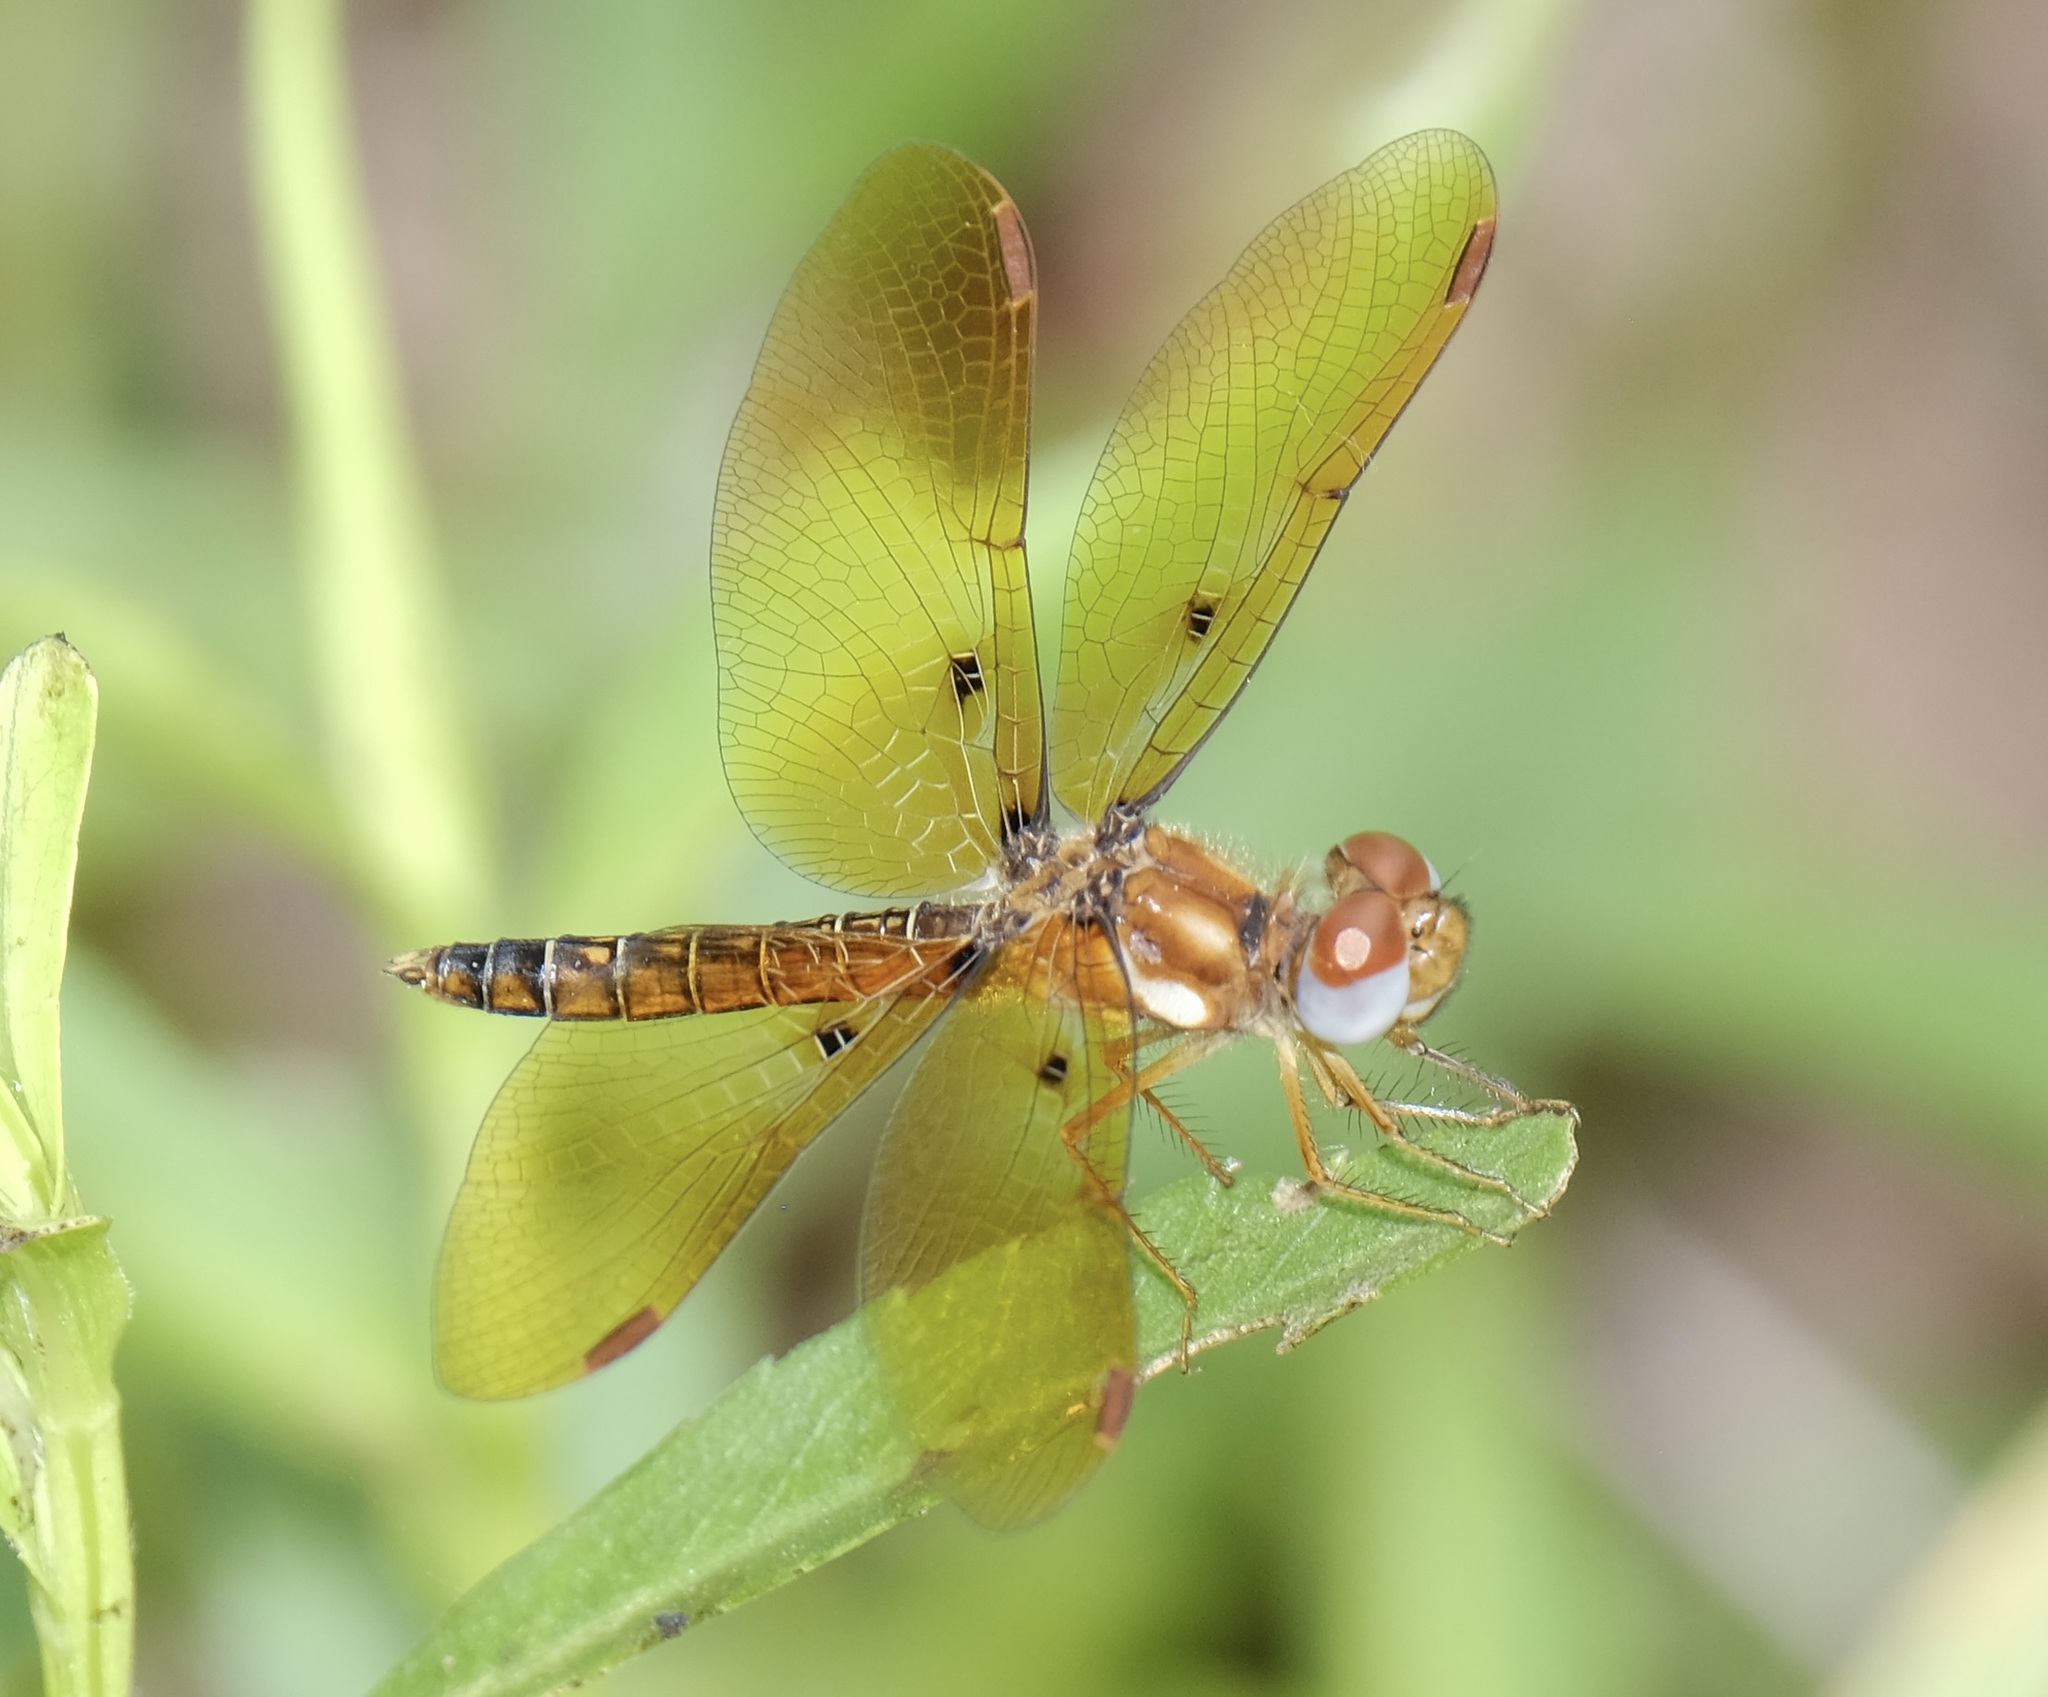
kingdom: Animalia
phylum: Arthropoda
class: Insecta
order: Odonata
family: Libellulidae
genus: Perithemis
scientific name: Perithemis tenera
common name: Eastern amberwing
